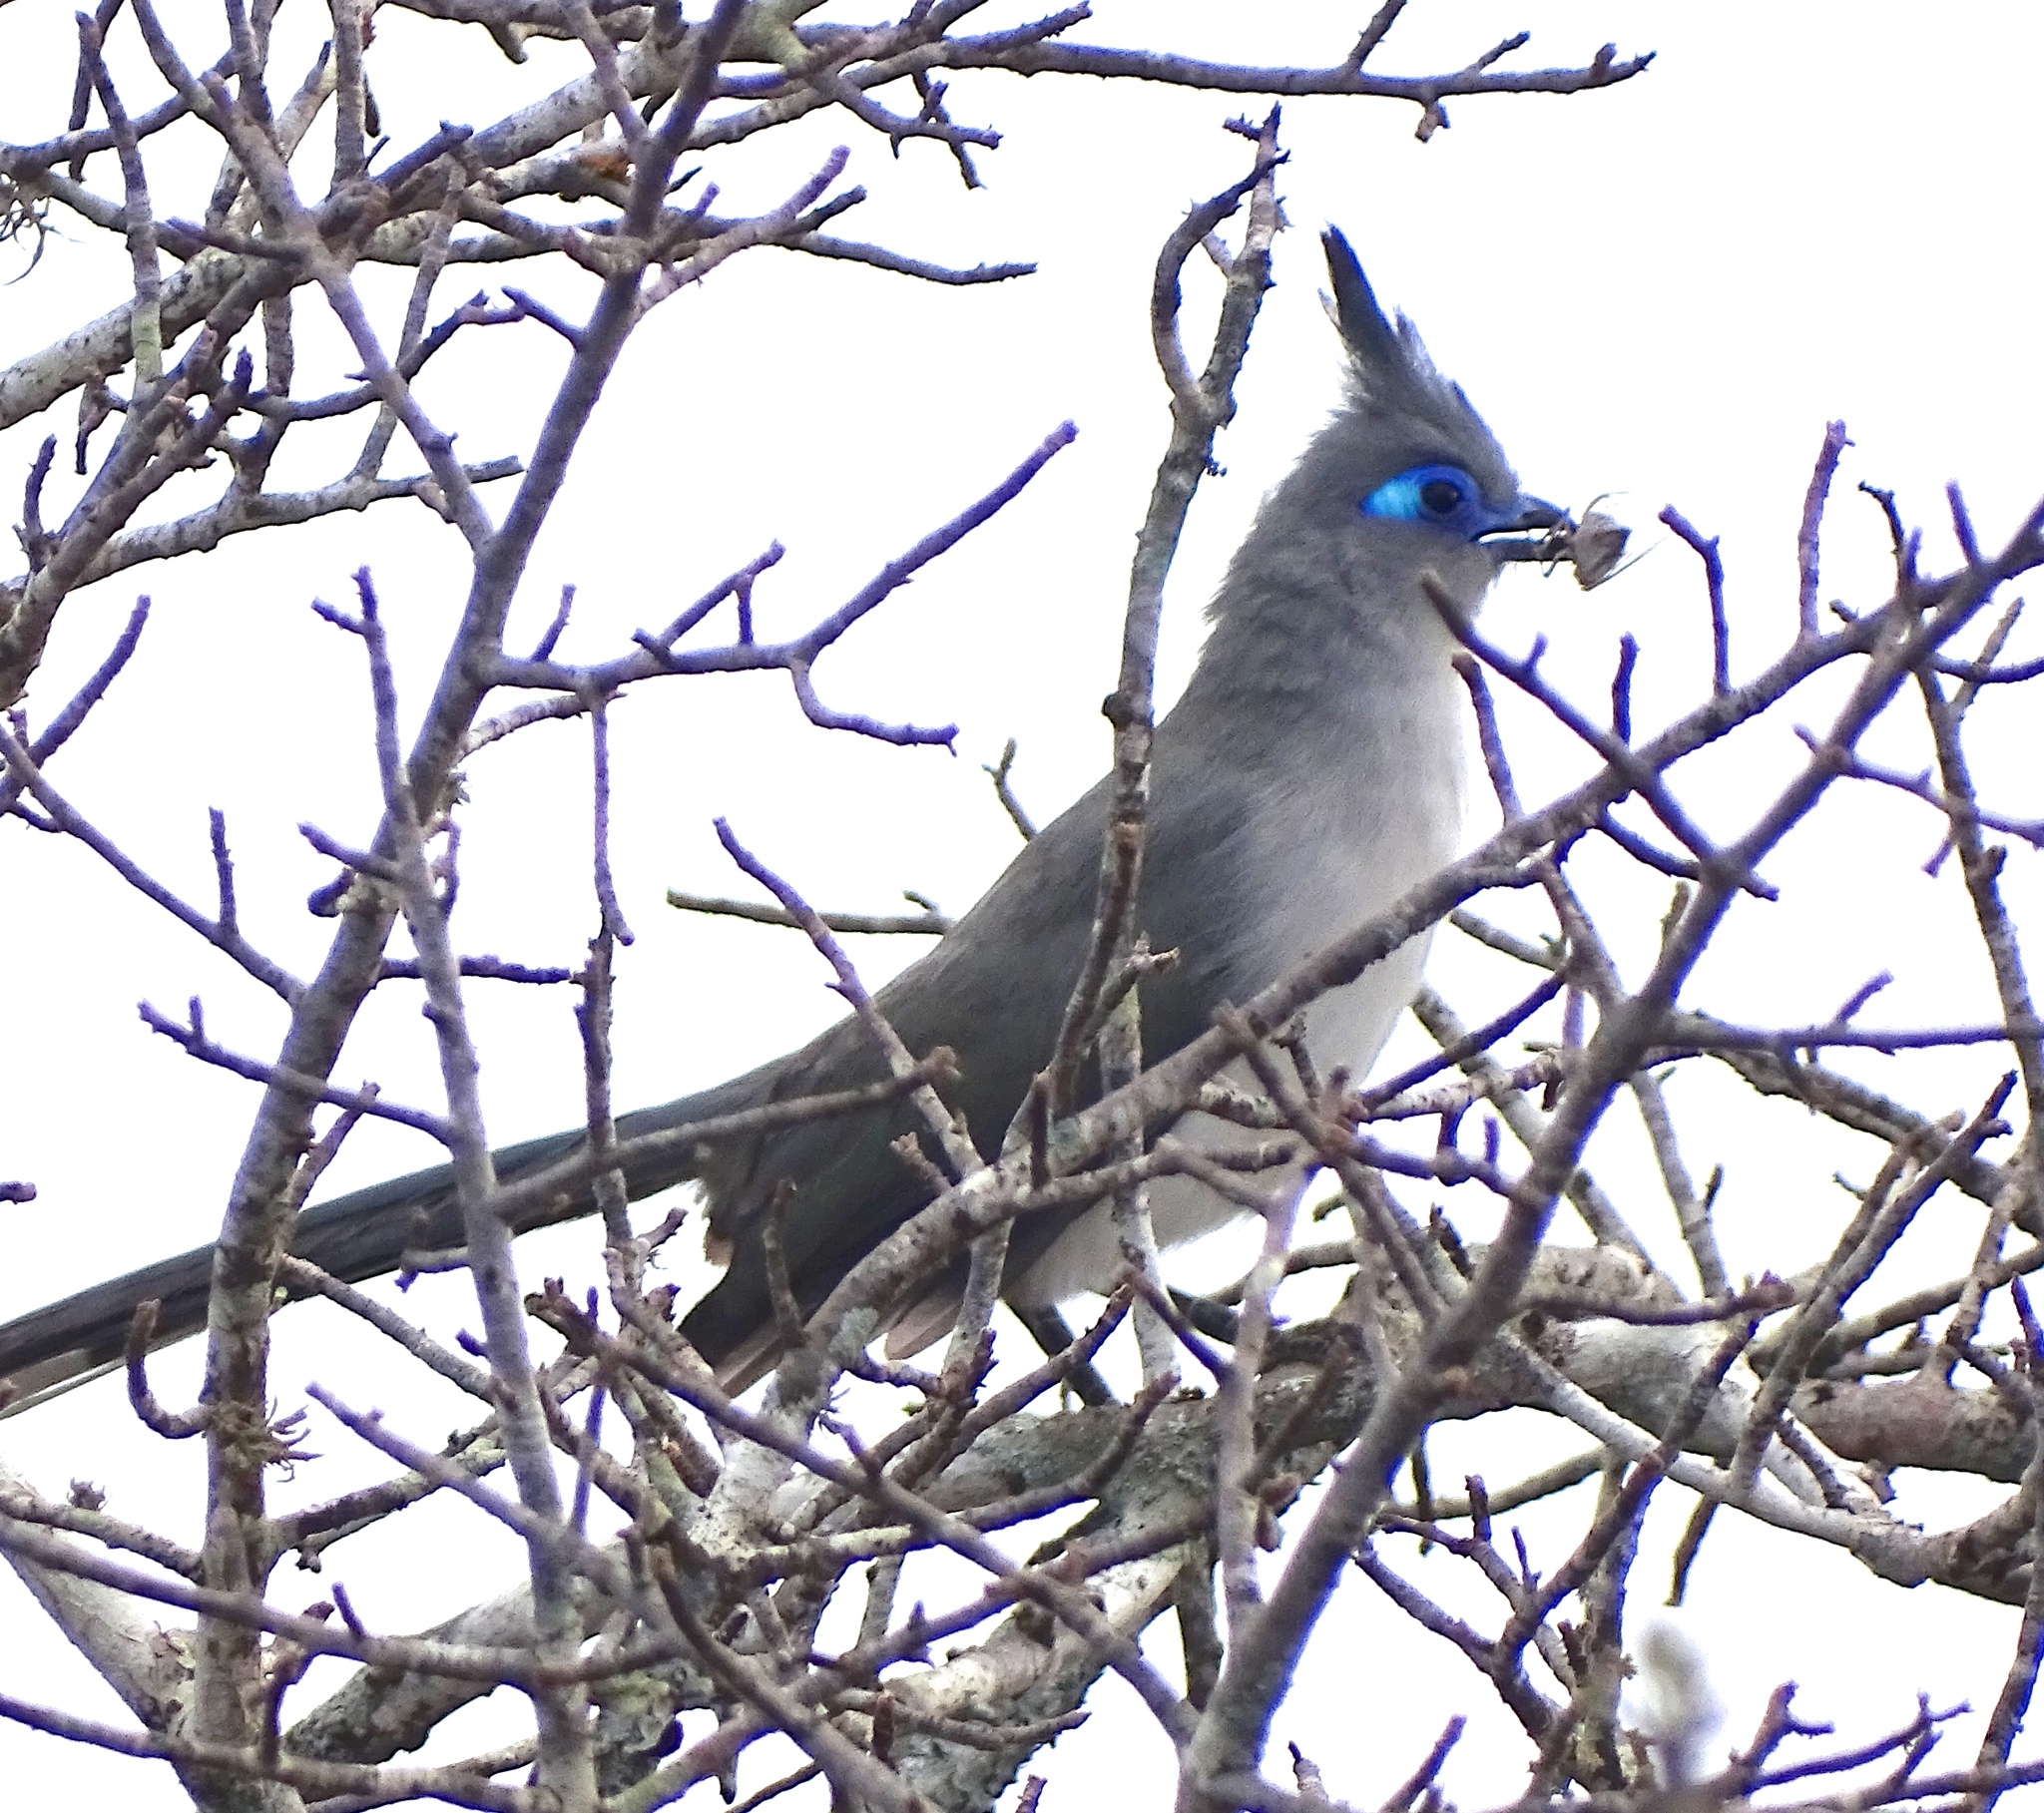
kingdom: Animalia
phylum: Chordata
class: Aves
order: Cuculiformes
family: Cuculidae
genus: Coua
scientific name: Coua verreauxi
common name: Verreaux's coua
